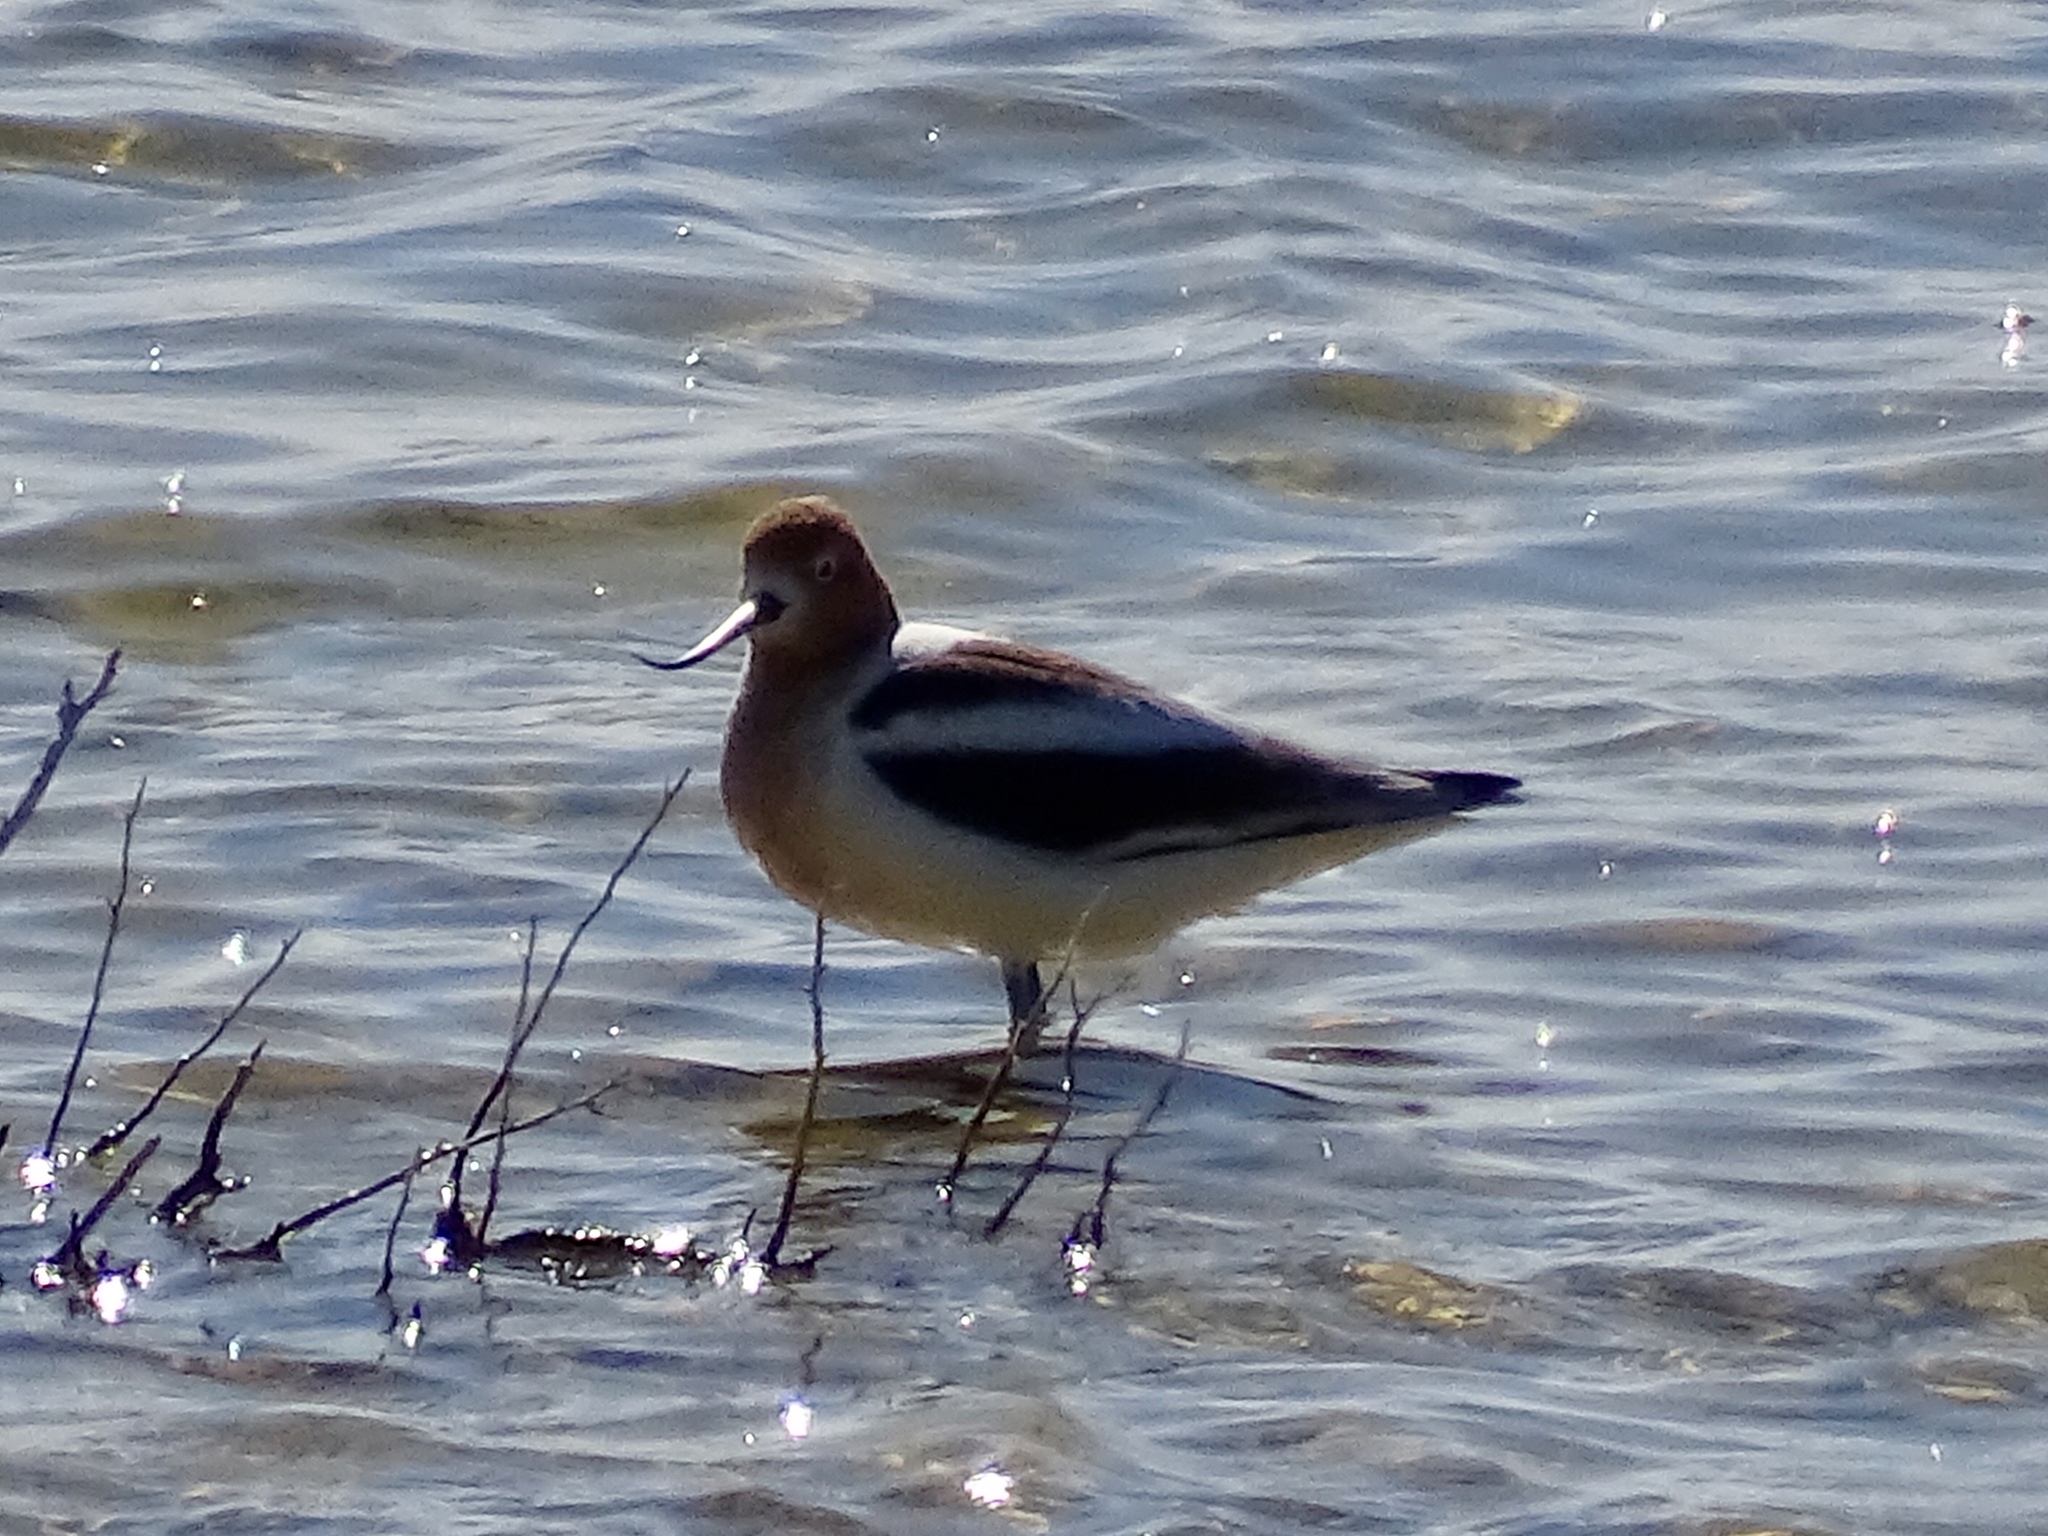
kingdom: Animalia
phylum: Chordata
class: Aves
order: Charadriiformes
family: Recurvirostridae
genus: Recurvirostra
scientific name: Recurvirostra americana
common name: American avocet
